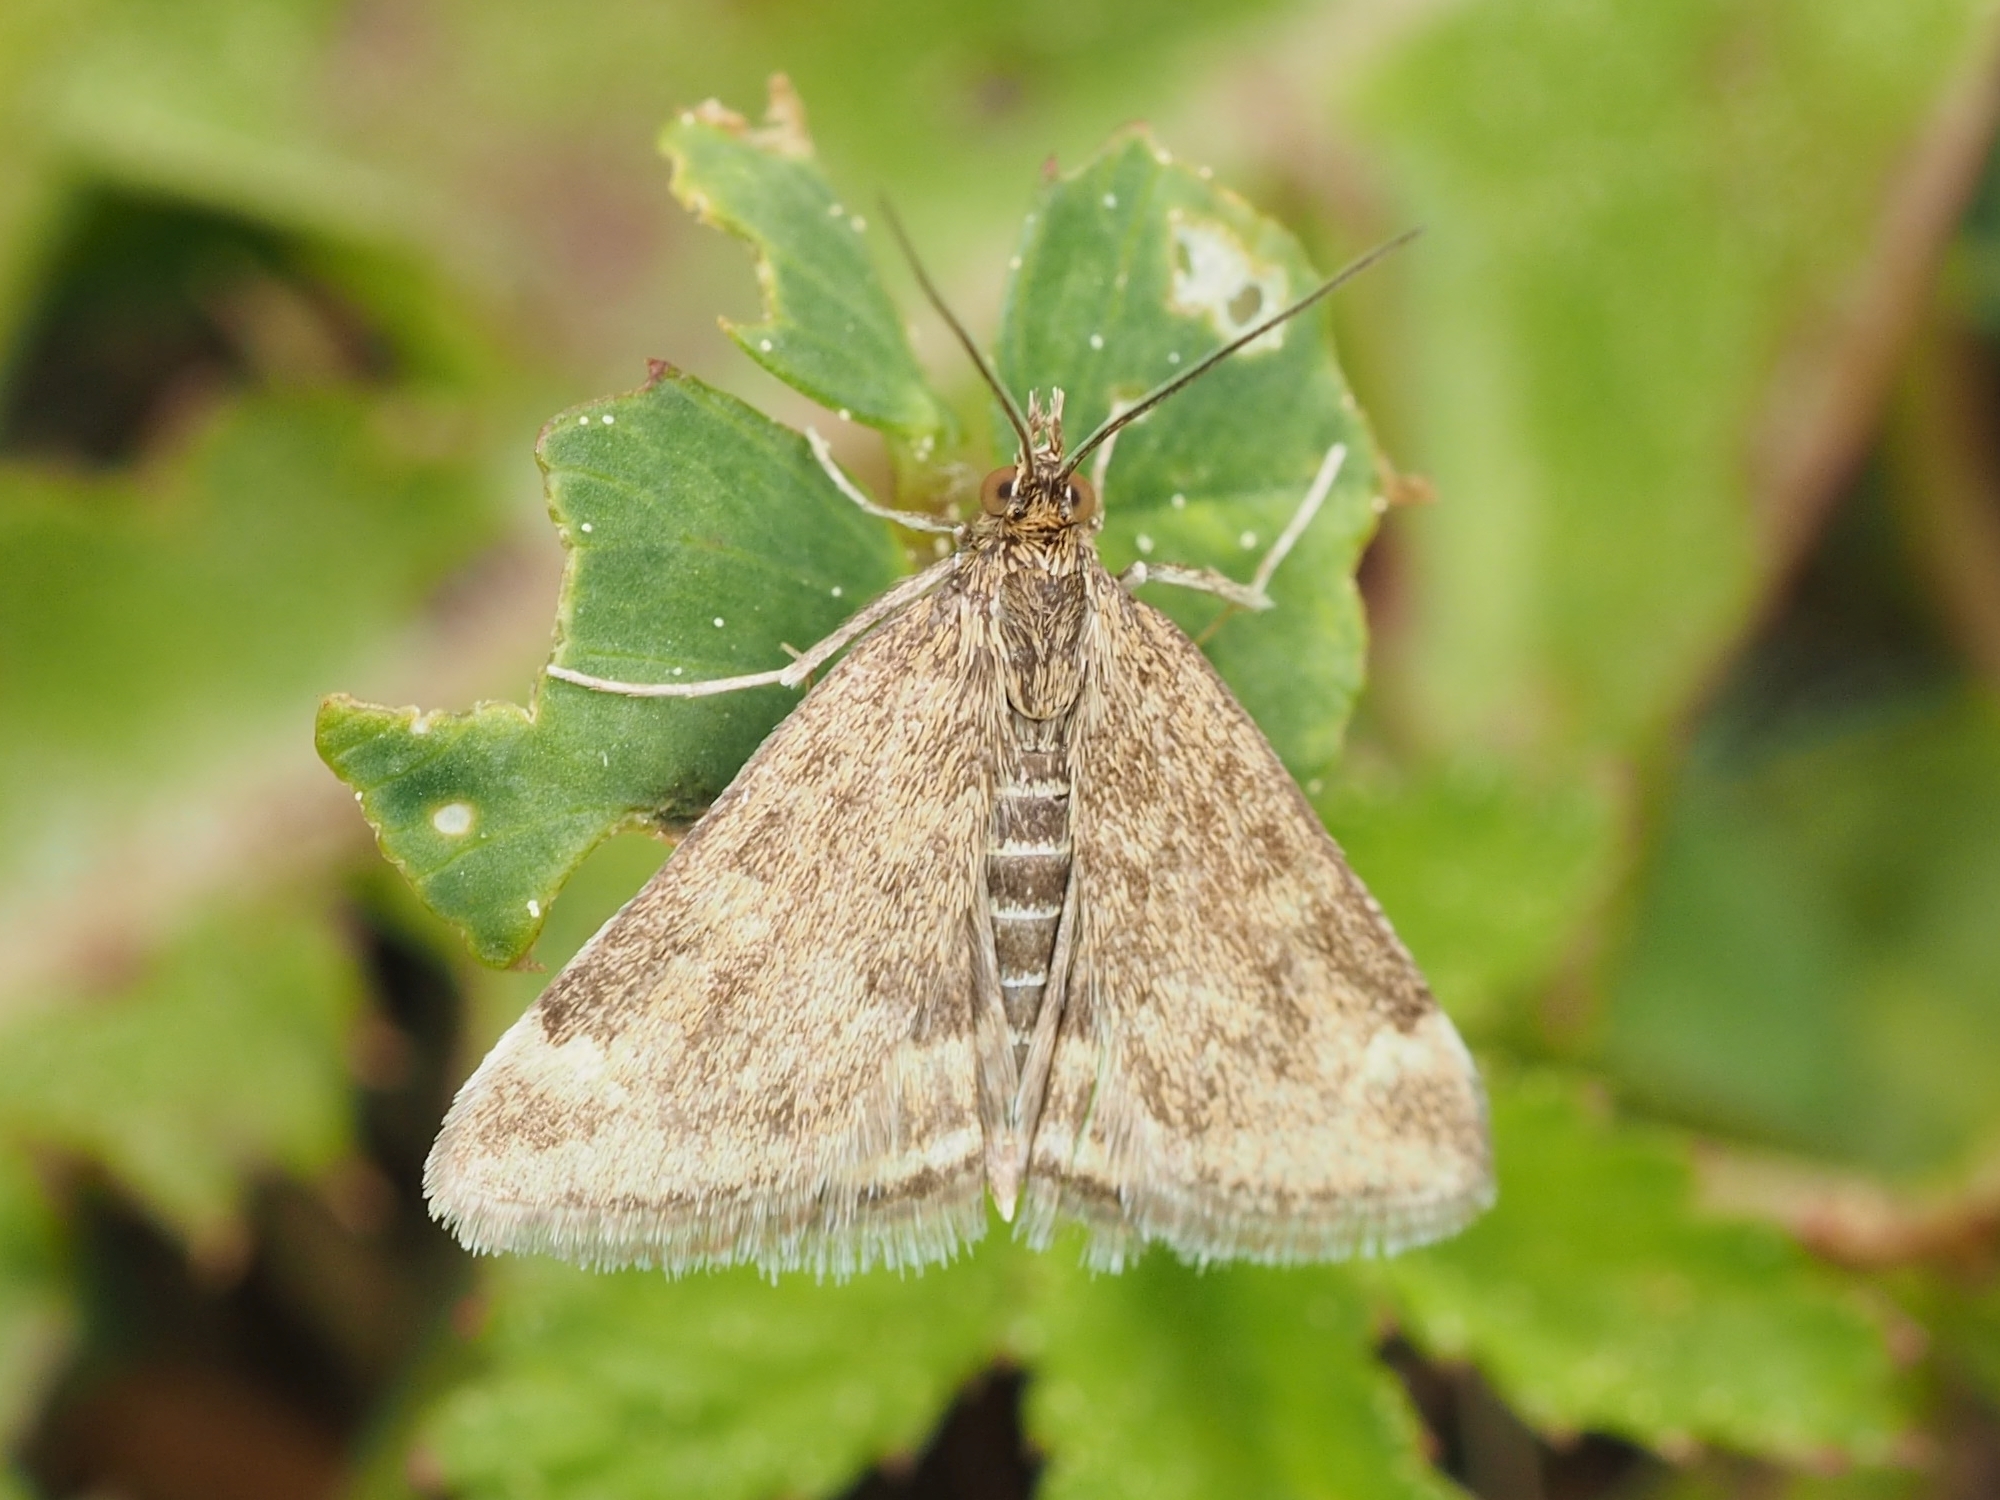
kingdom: Animalia
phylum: Arthropoda
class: Insecta
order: Lepidoptera
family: Crambidae
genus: Pyrausta
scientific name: Pyrausta despicata
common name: Straw-barred pearl
